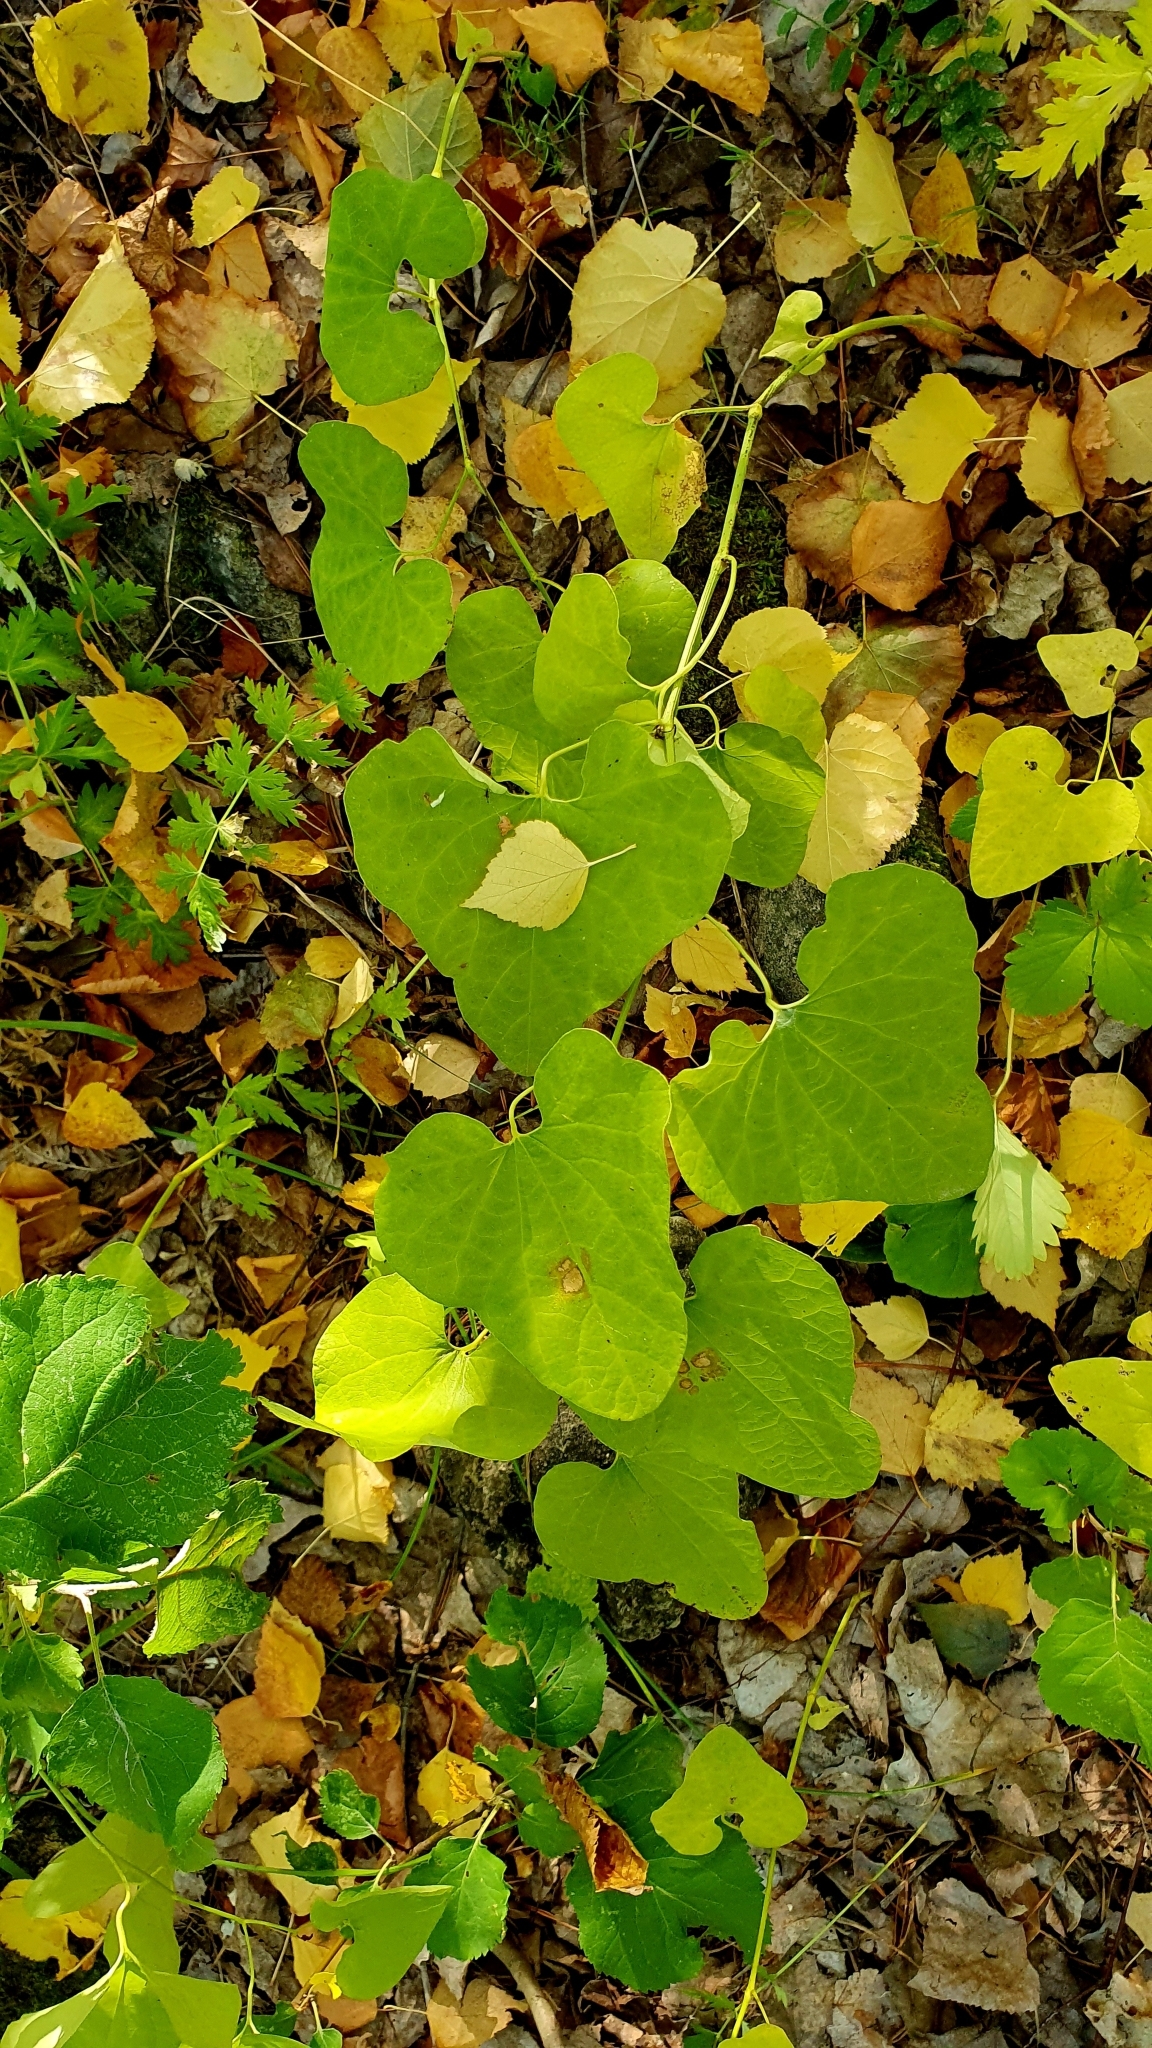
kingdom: Plantae
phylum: Tracheophyta
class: Magnoliopsida
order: Piperales
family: Aristolochiaceae
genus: Aristolochia
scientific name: Aristolochia clematitis
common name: Birthwort
